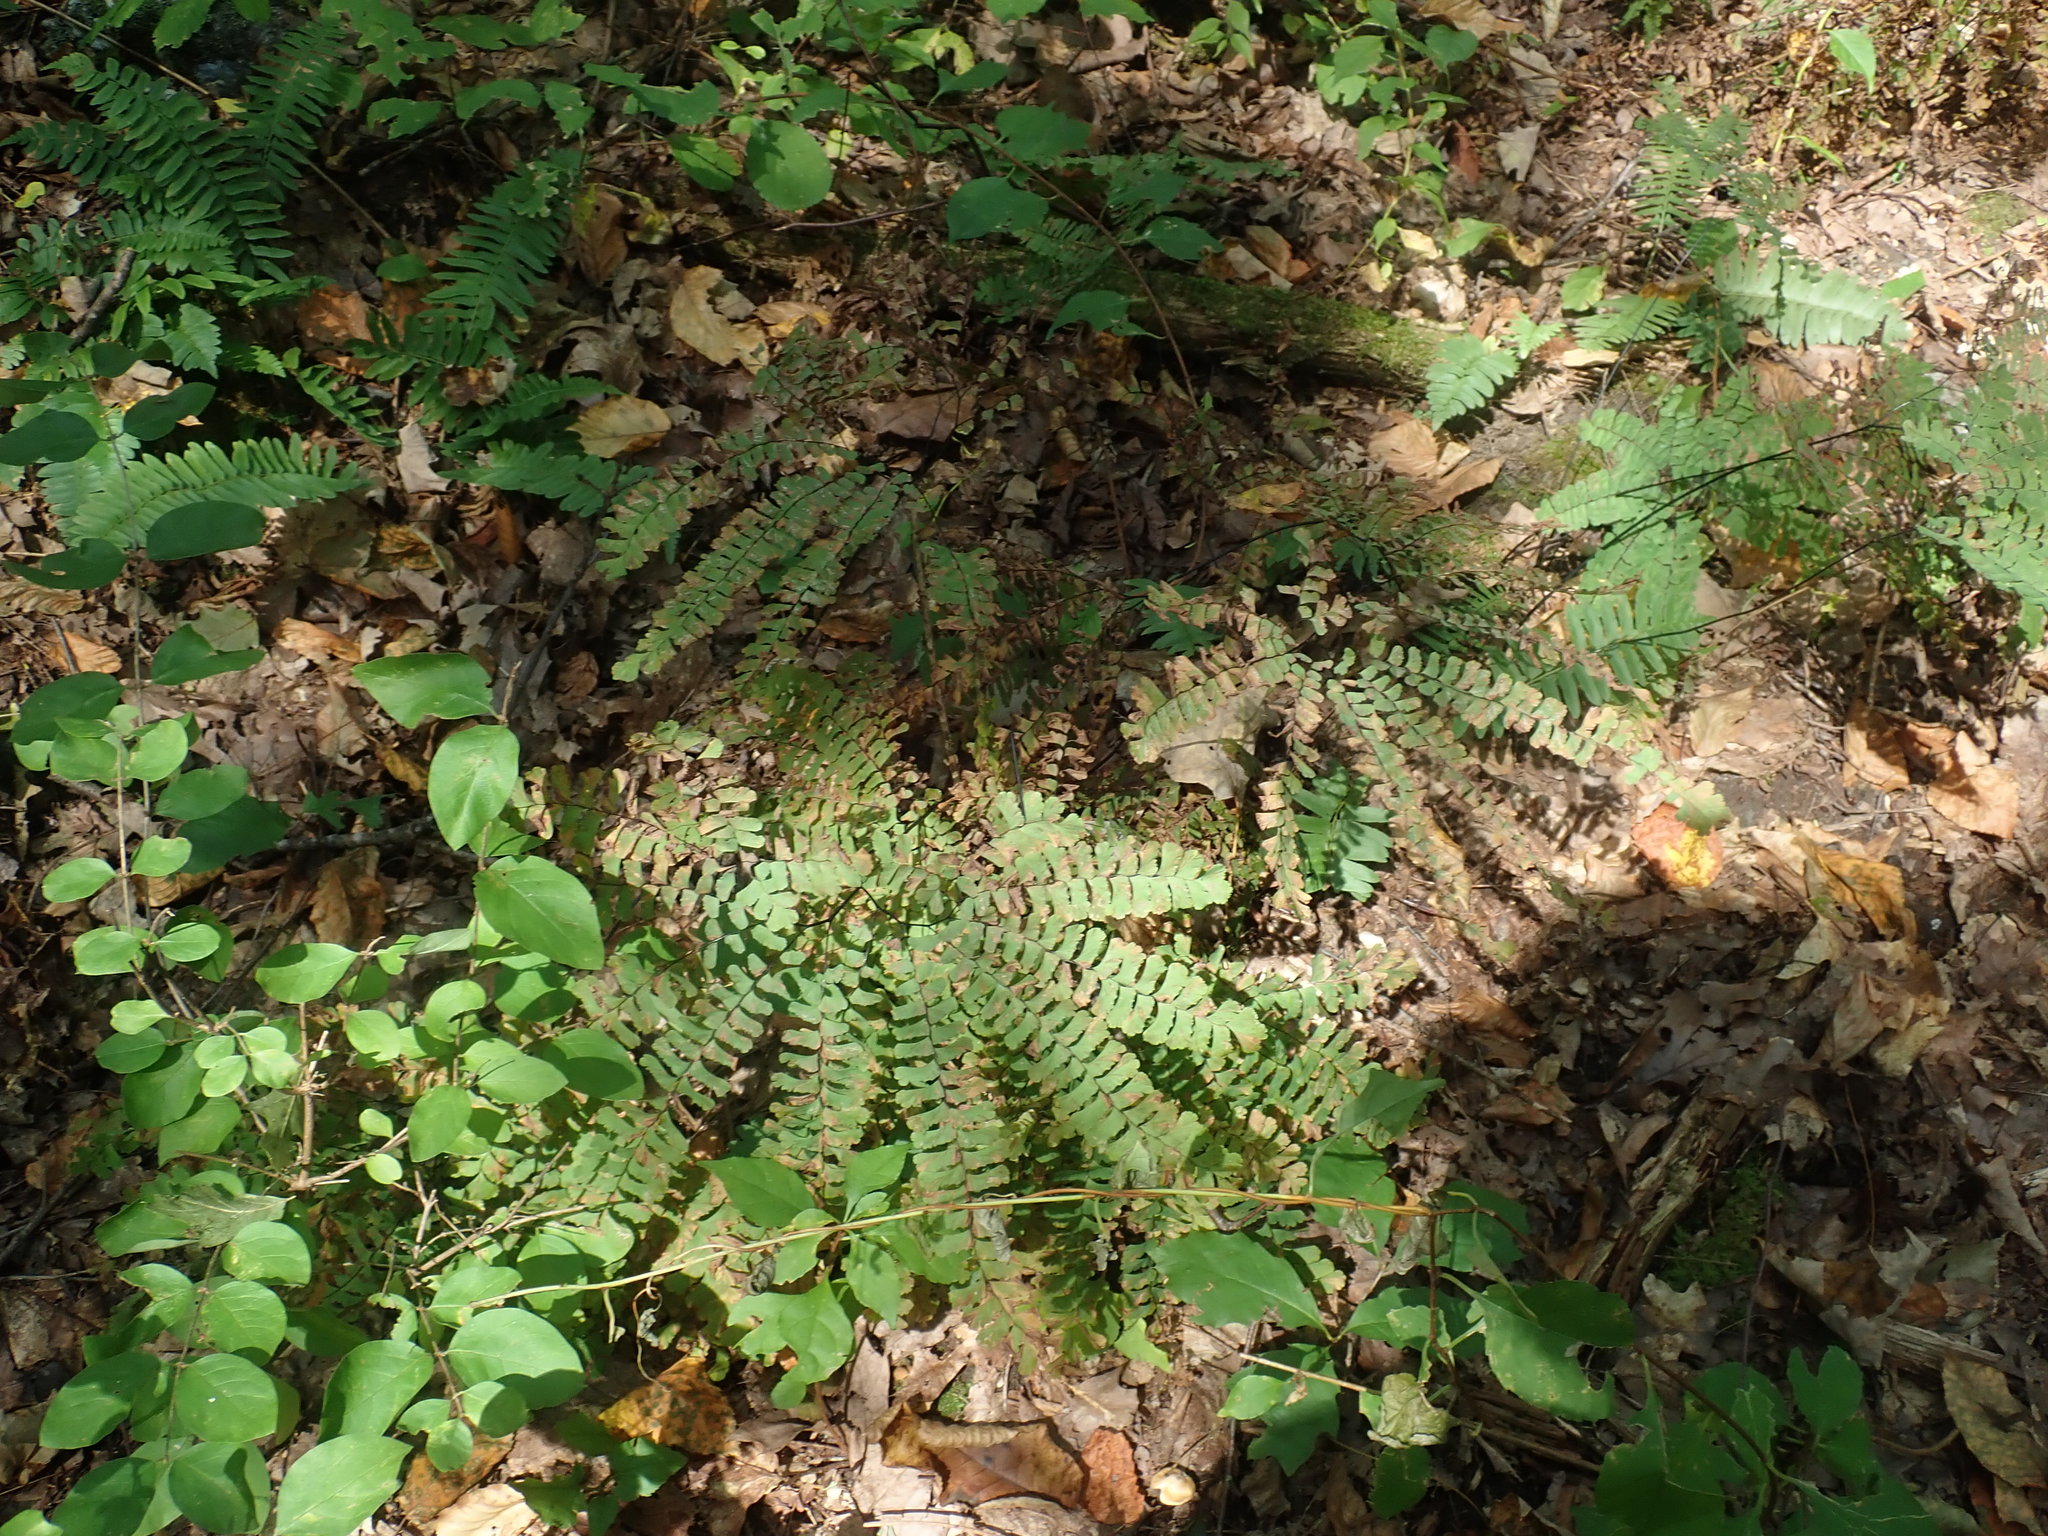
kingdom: Plantae
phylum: Tracheophyta
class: Polypodiopsida
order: Polypodiales
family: Pteridaceae
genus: Adiantum
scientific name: Adiantum pedatum
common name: Five-finger fern
